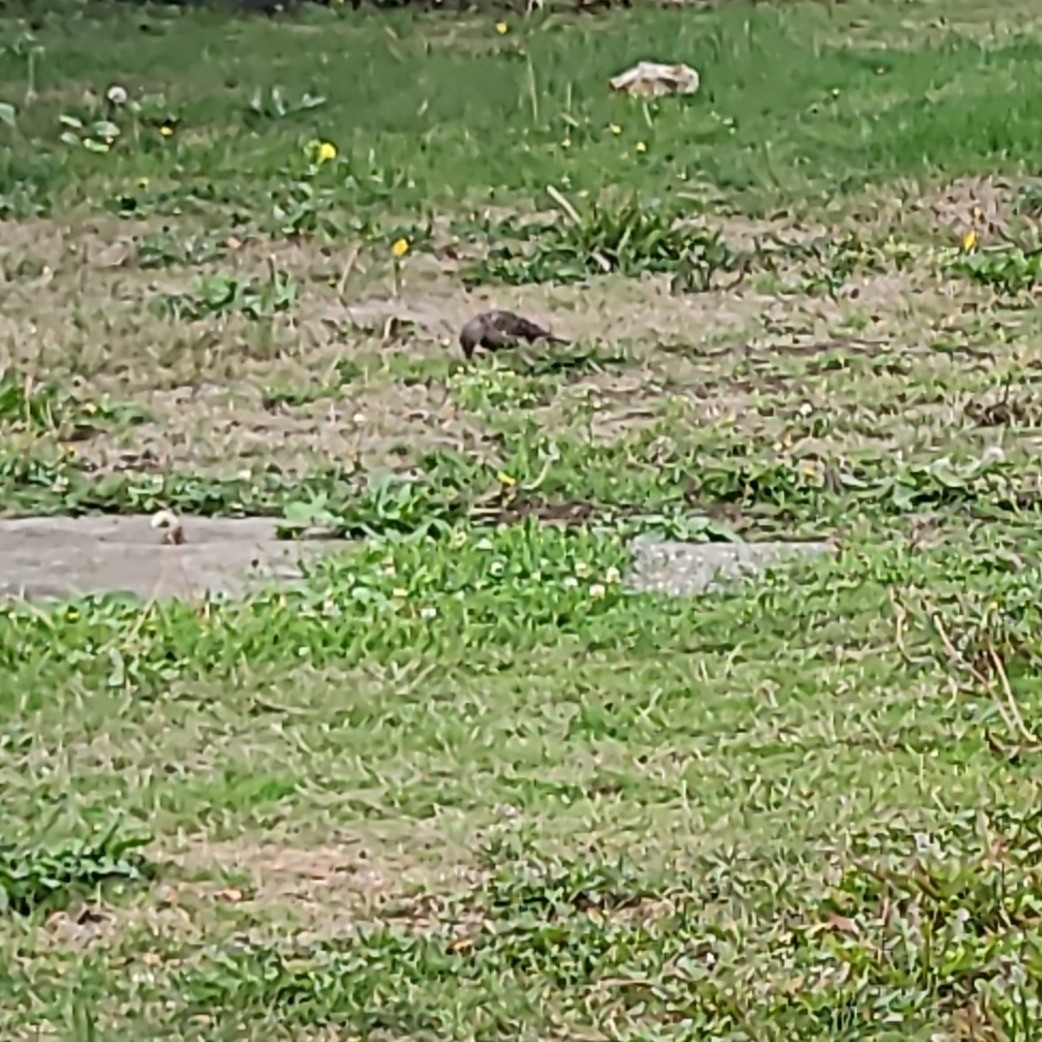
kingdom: Animalia
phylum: Chordata
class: Aves
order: Piciformes
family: Picidae
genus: Colaptes
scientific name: Colaptes auratus
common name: Northern flicker
